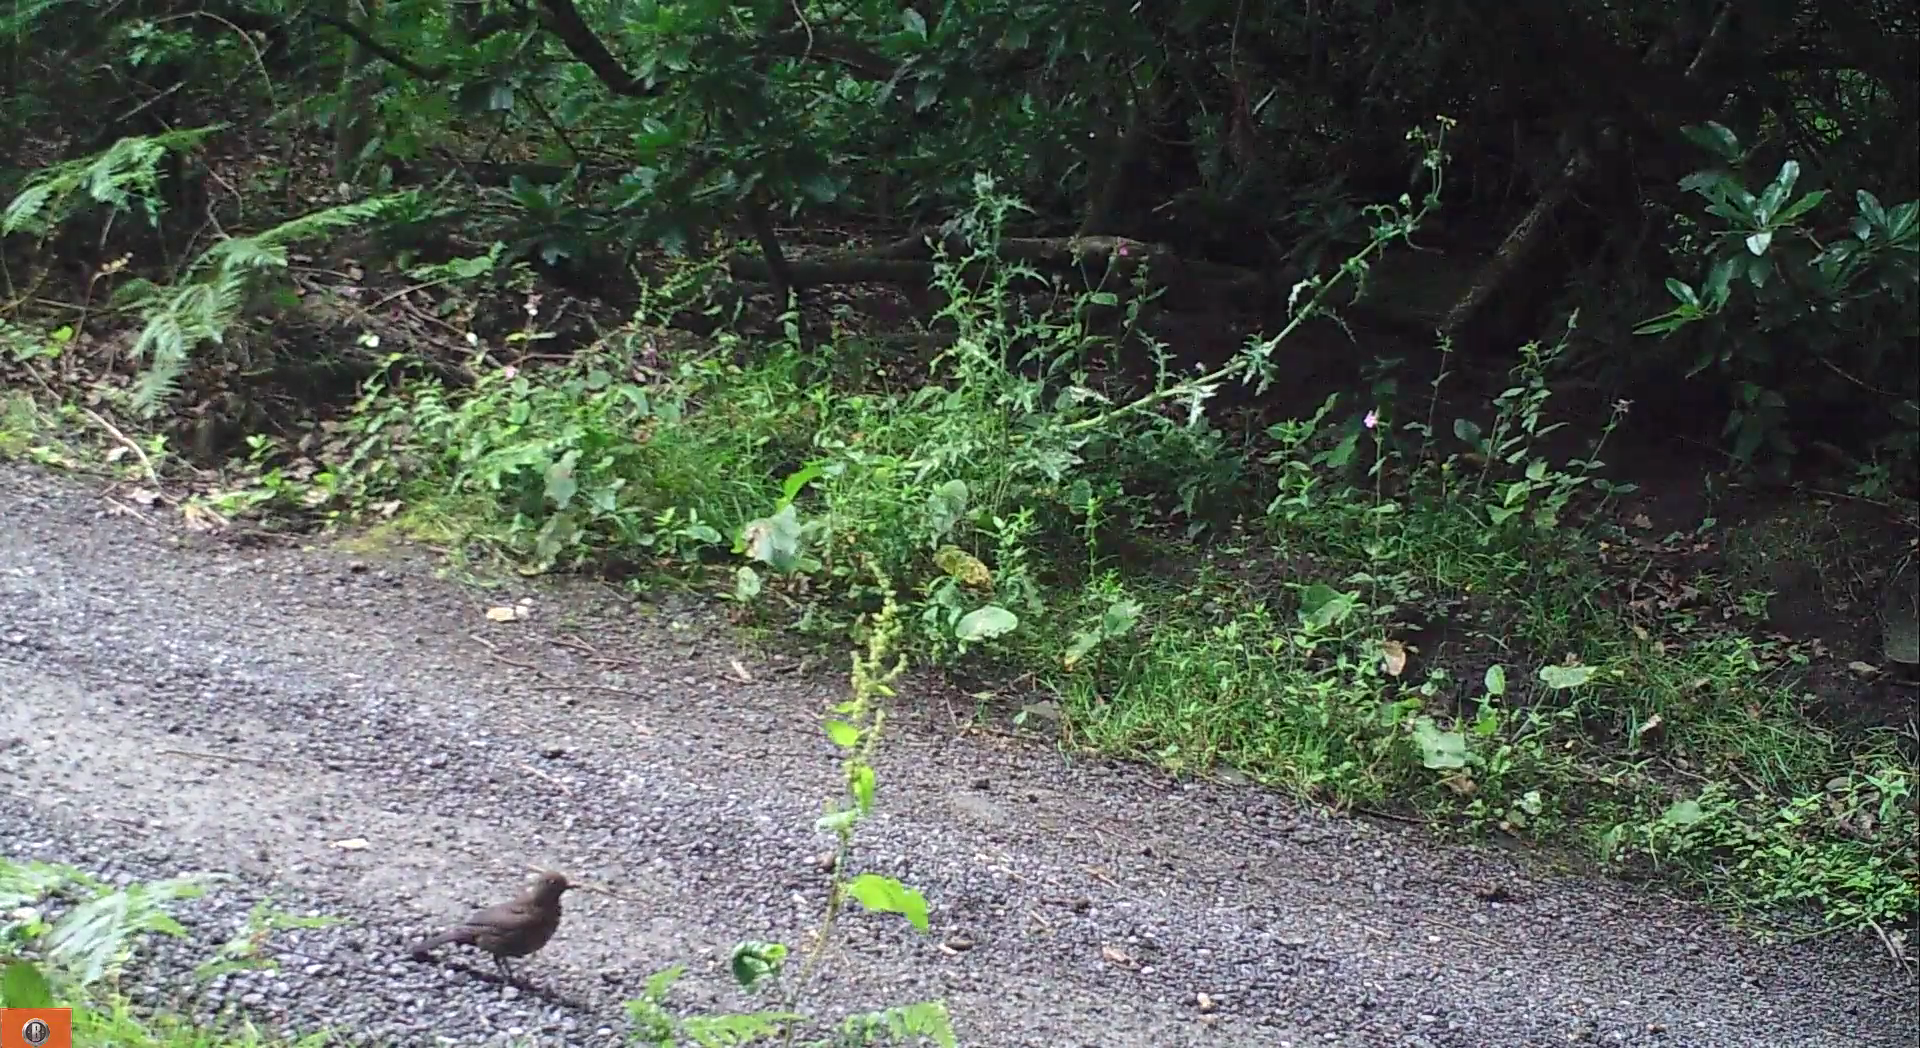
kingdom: Animalia
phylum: Chordata
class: Aves
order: Passeriformes
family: Turdidae
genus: Turdus
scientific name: Turdus merula
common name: Common blackbird
